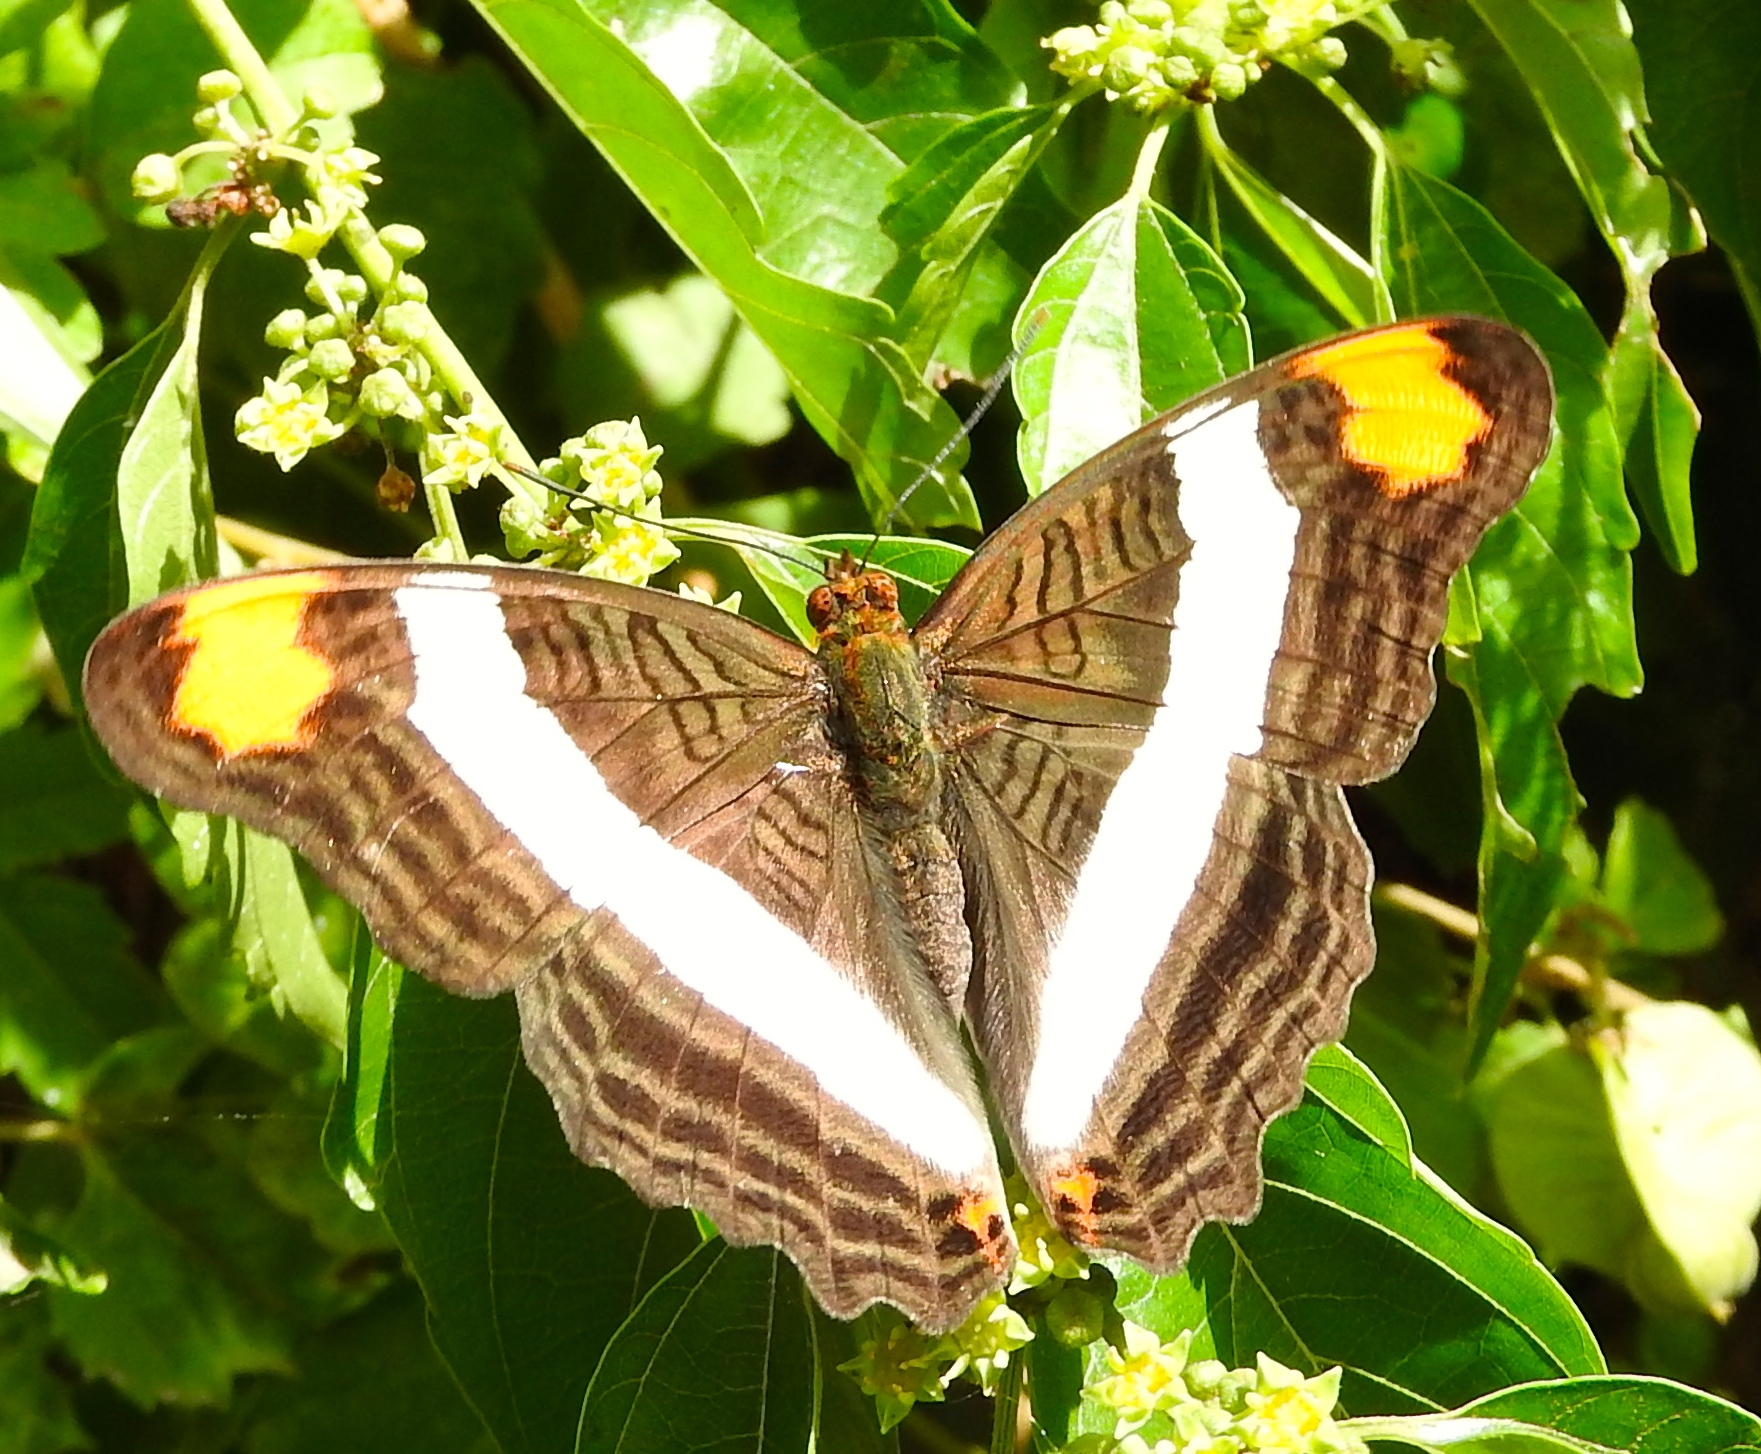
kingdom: Animalia
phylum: Arthropoda
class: Insecta
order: Lepidoptera
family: Nymphalidae
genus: Limenitis
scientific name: Limenitis fessonia
